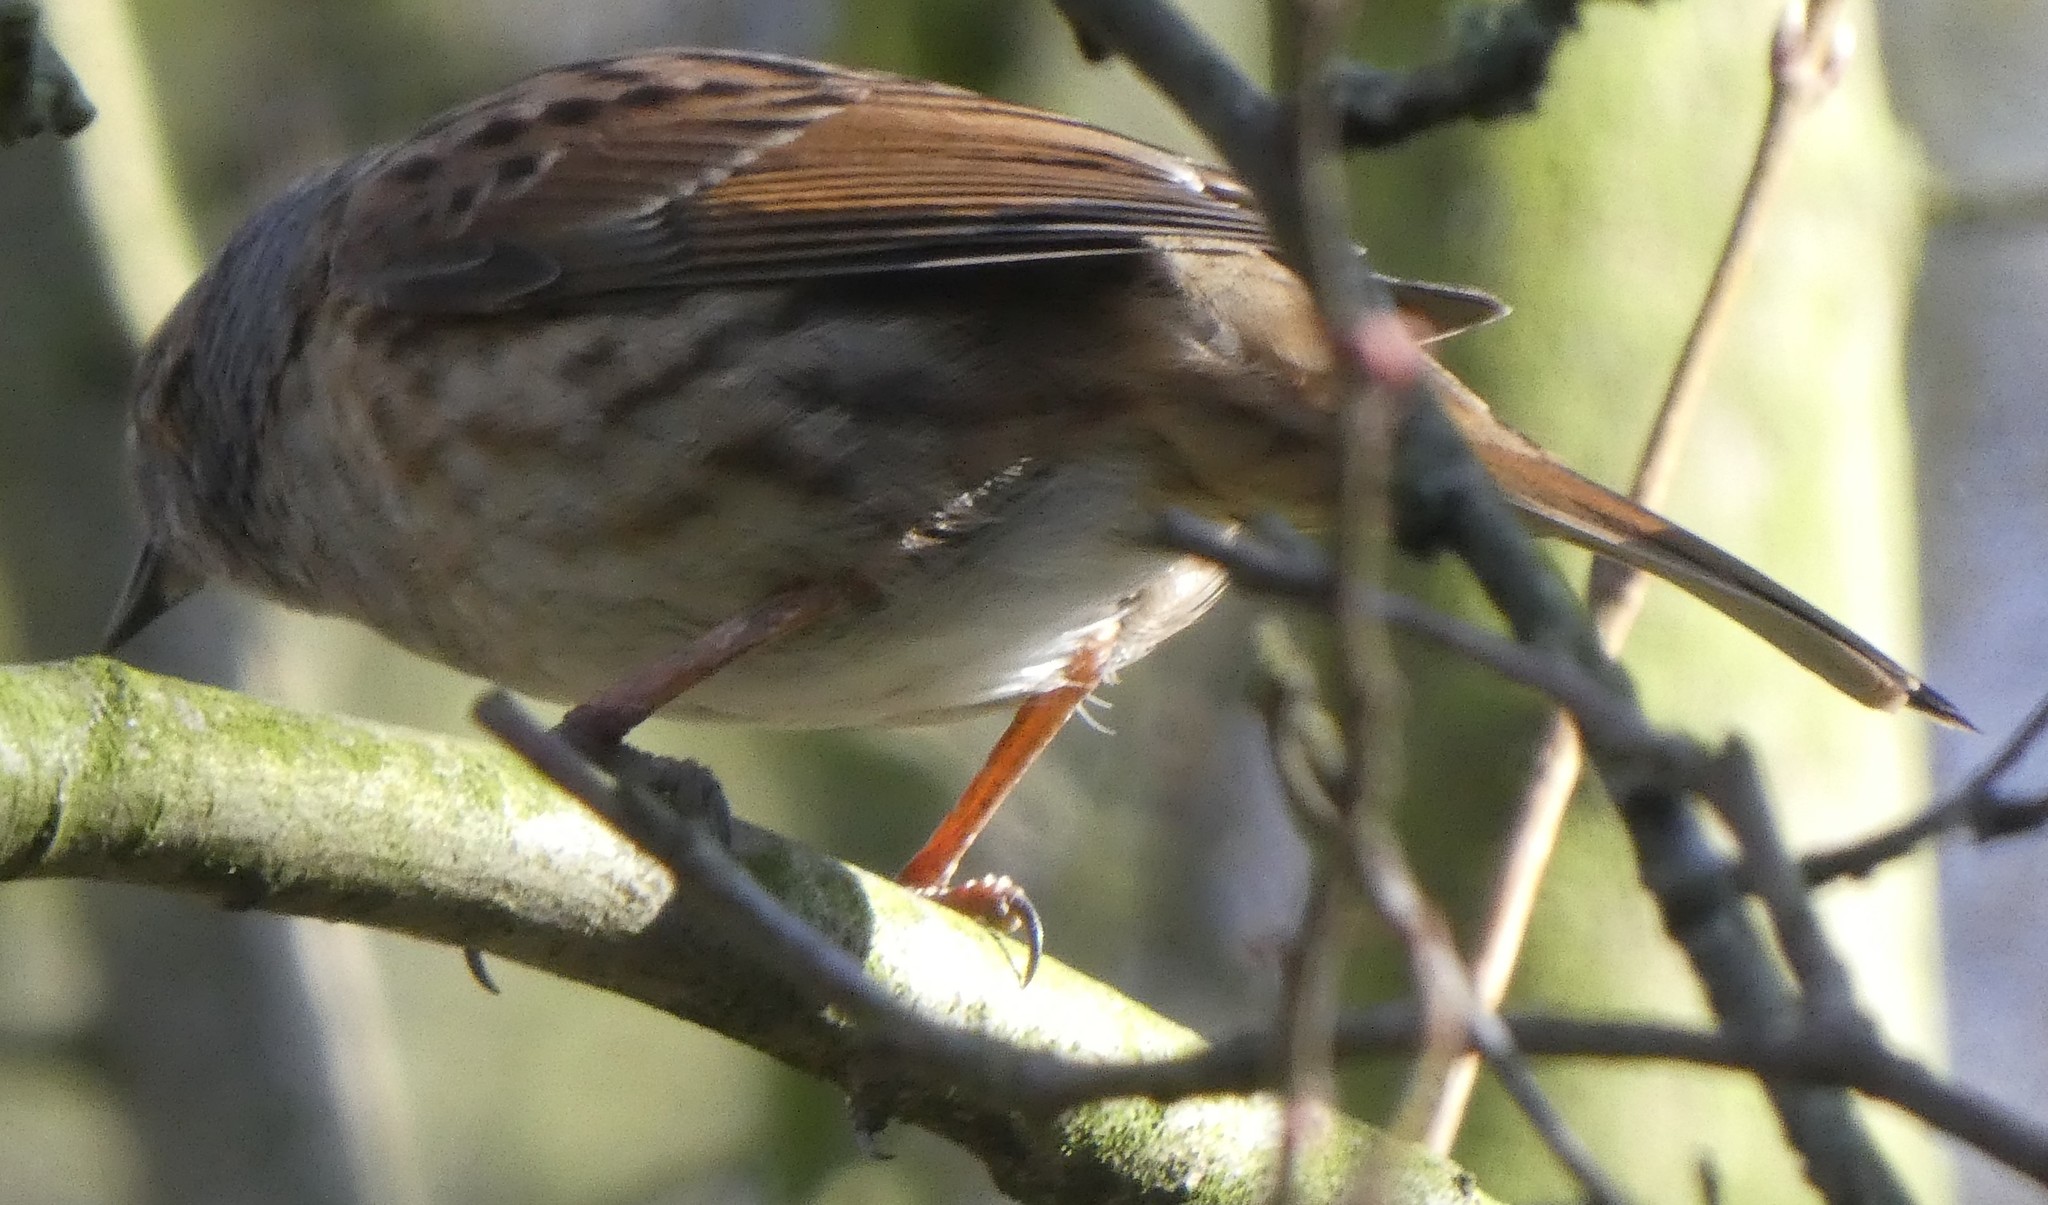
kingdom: Animalia
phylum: Chordata
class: Aves
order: Passeriformes
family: Prunellidae
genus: Prunella
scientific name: Prunella modularis
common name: Dunnock
